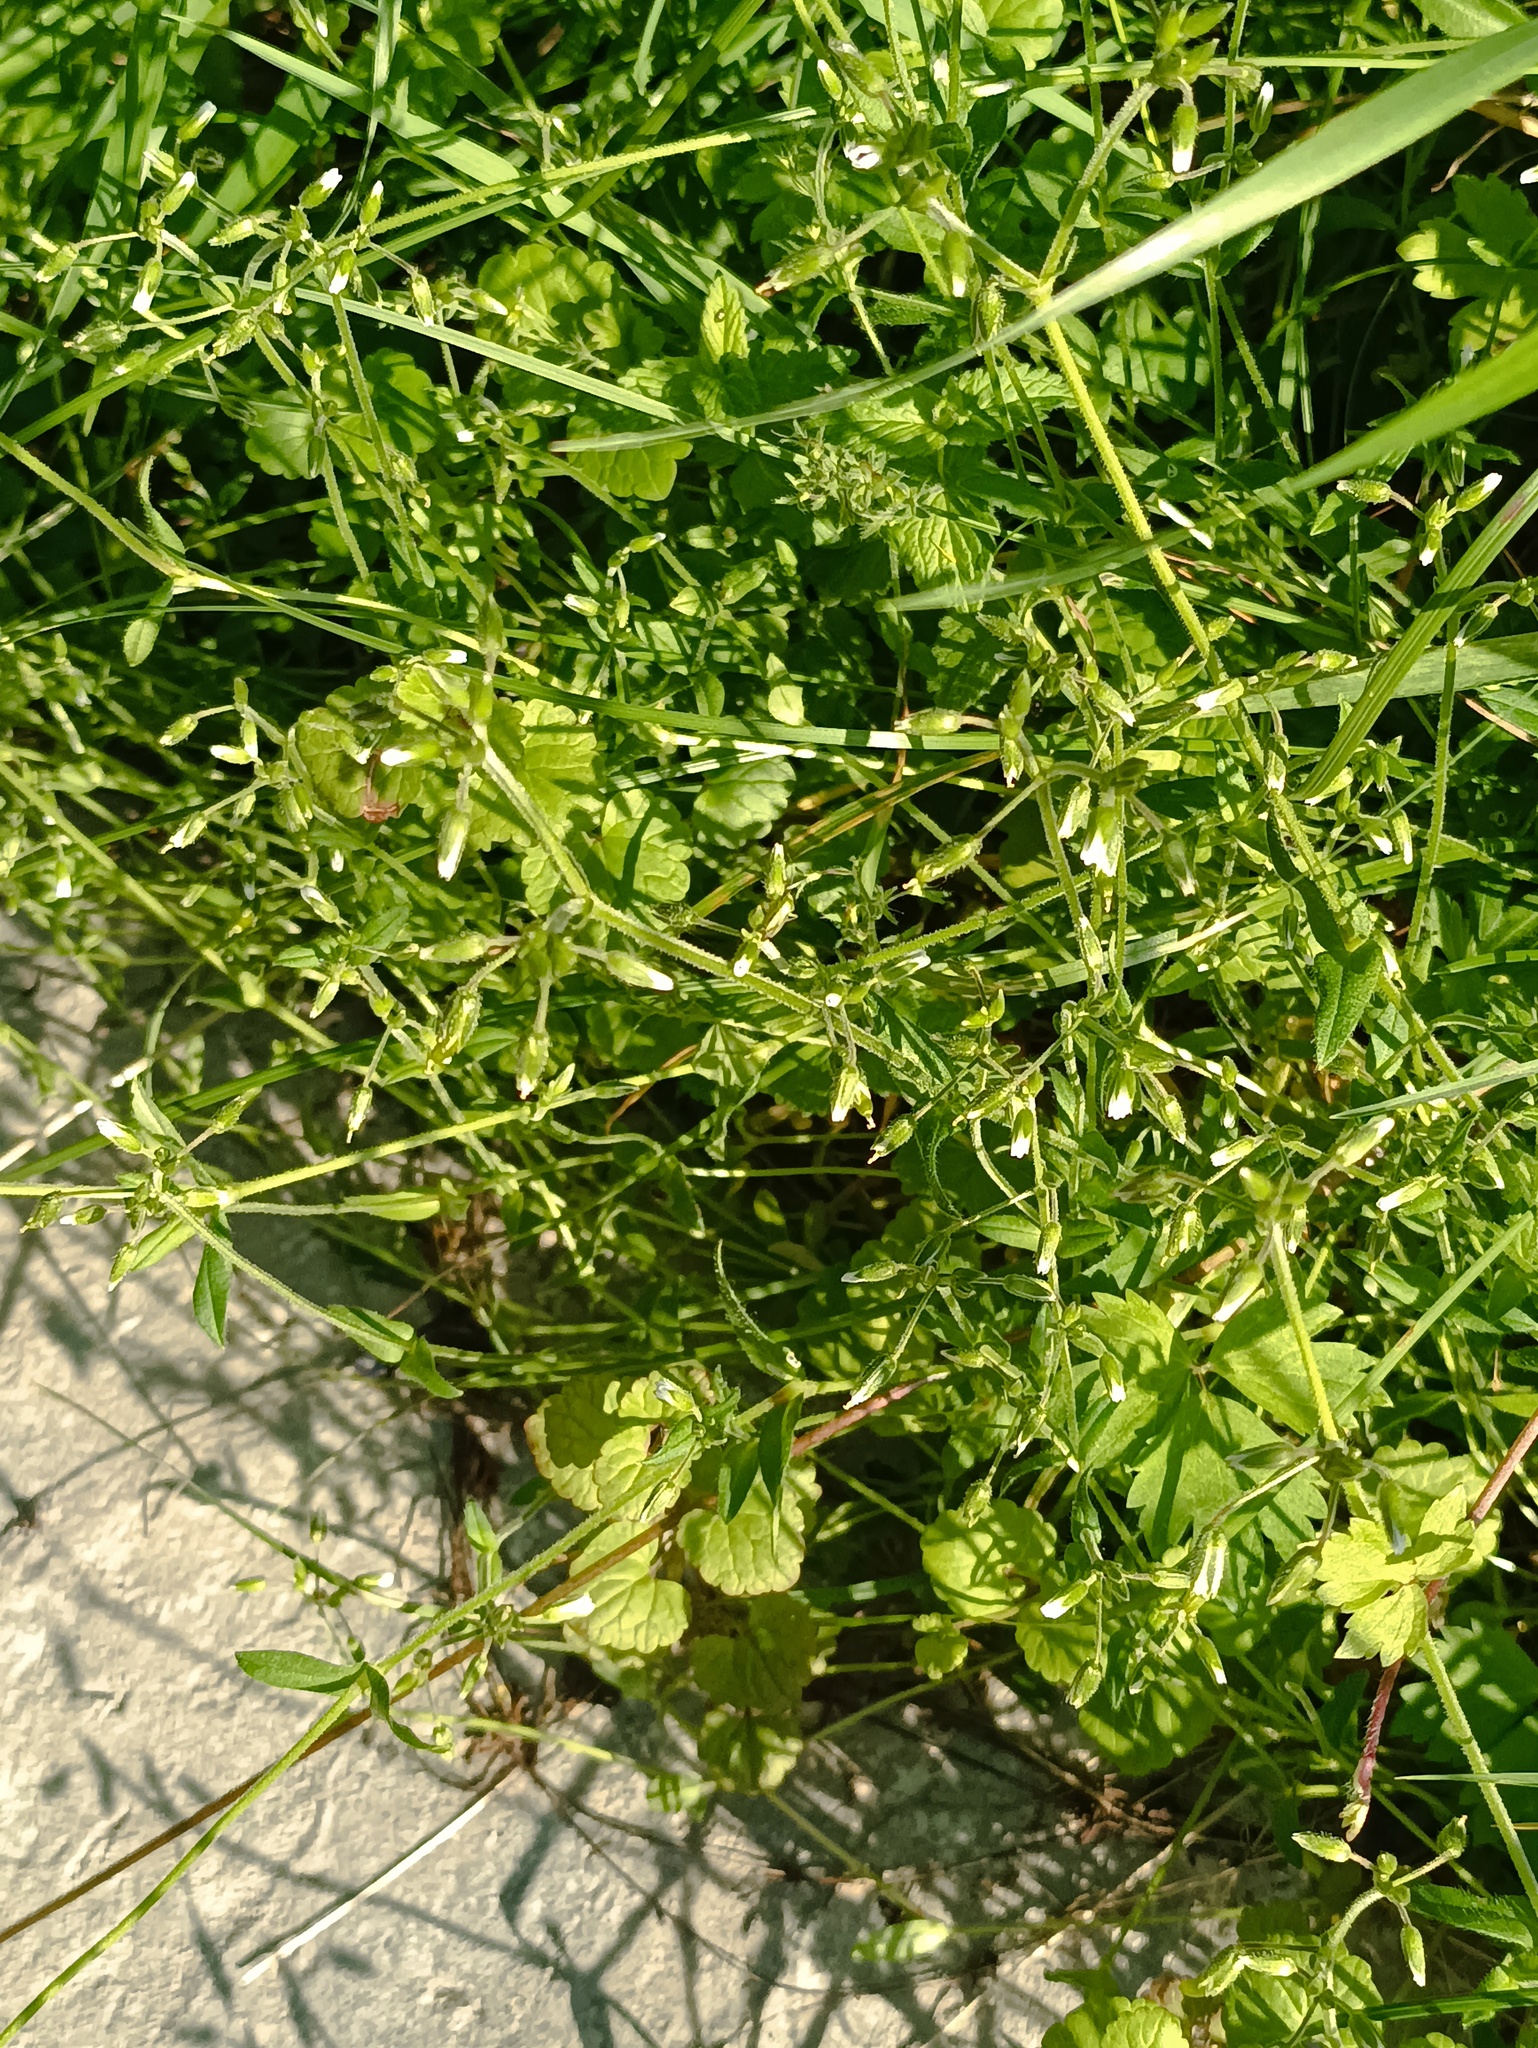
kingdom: Plantae
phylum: Tracheophyta
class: Magnoliopsida
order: Caryophyllales
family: Caryophyllaceae
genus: Cerastium
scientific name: Cerastium holosteoides
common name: Big chickweed
